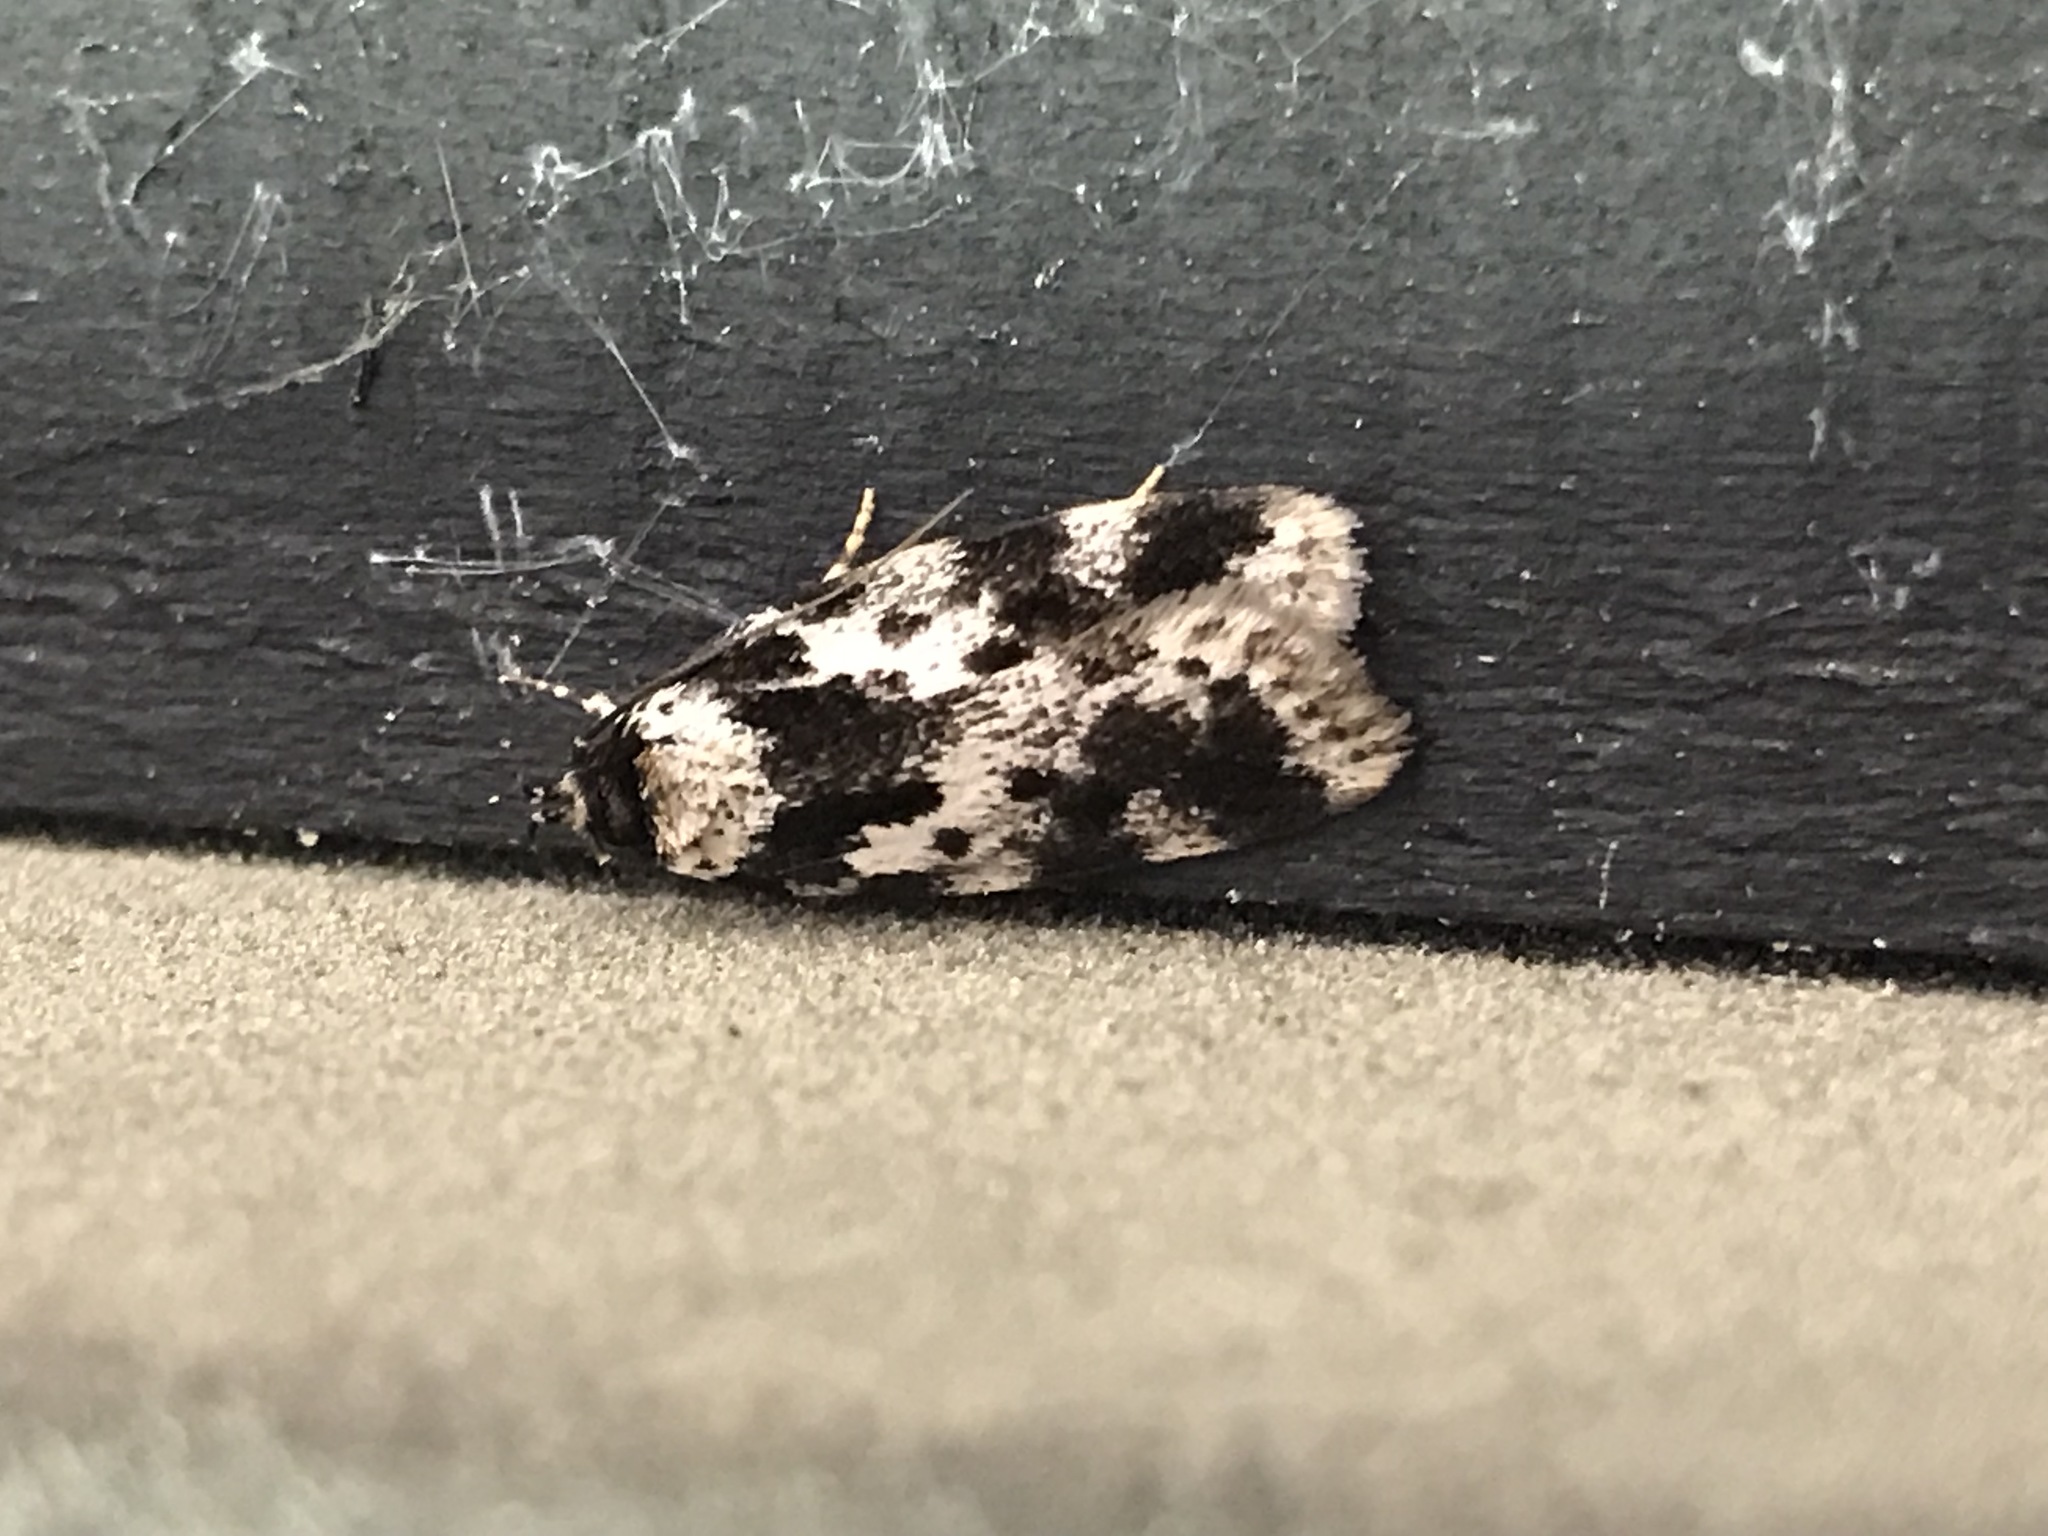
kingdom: Animalia
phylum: Arthropoda
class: Insecta
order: Lepidoptera
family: Oecophoridae
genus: Barea
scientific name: Barea confusella
